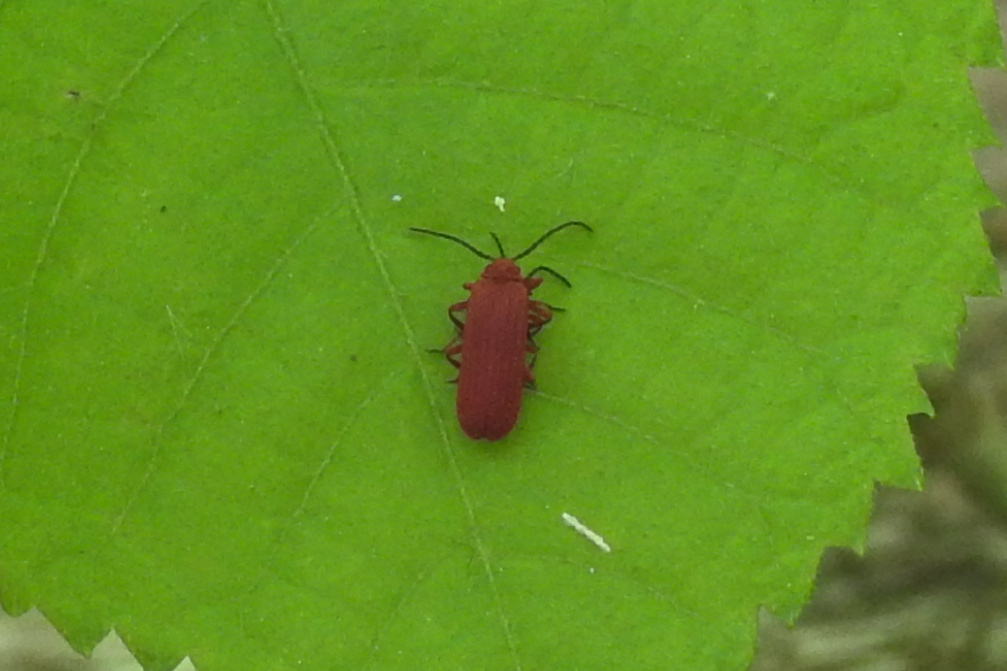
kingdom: Animalia
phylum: Arthropoda
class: Insecta
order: Coleoptera
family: Lycidae
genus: Punicealis
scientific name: Punicealis
